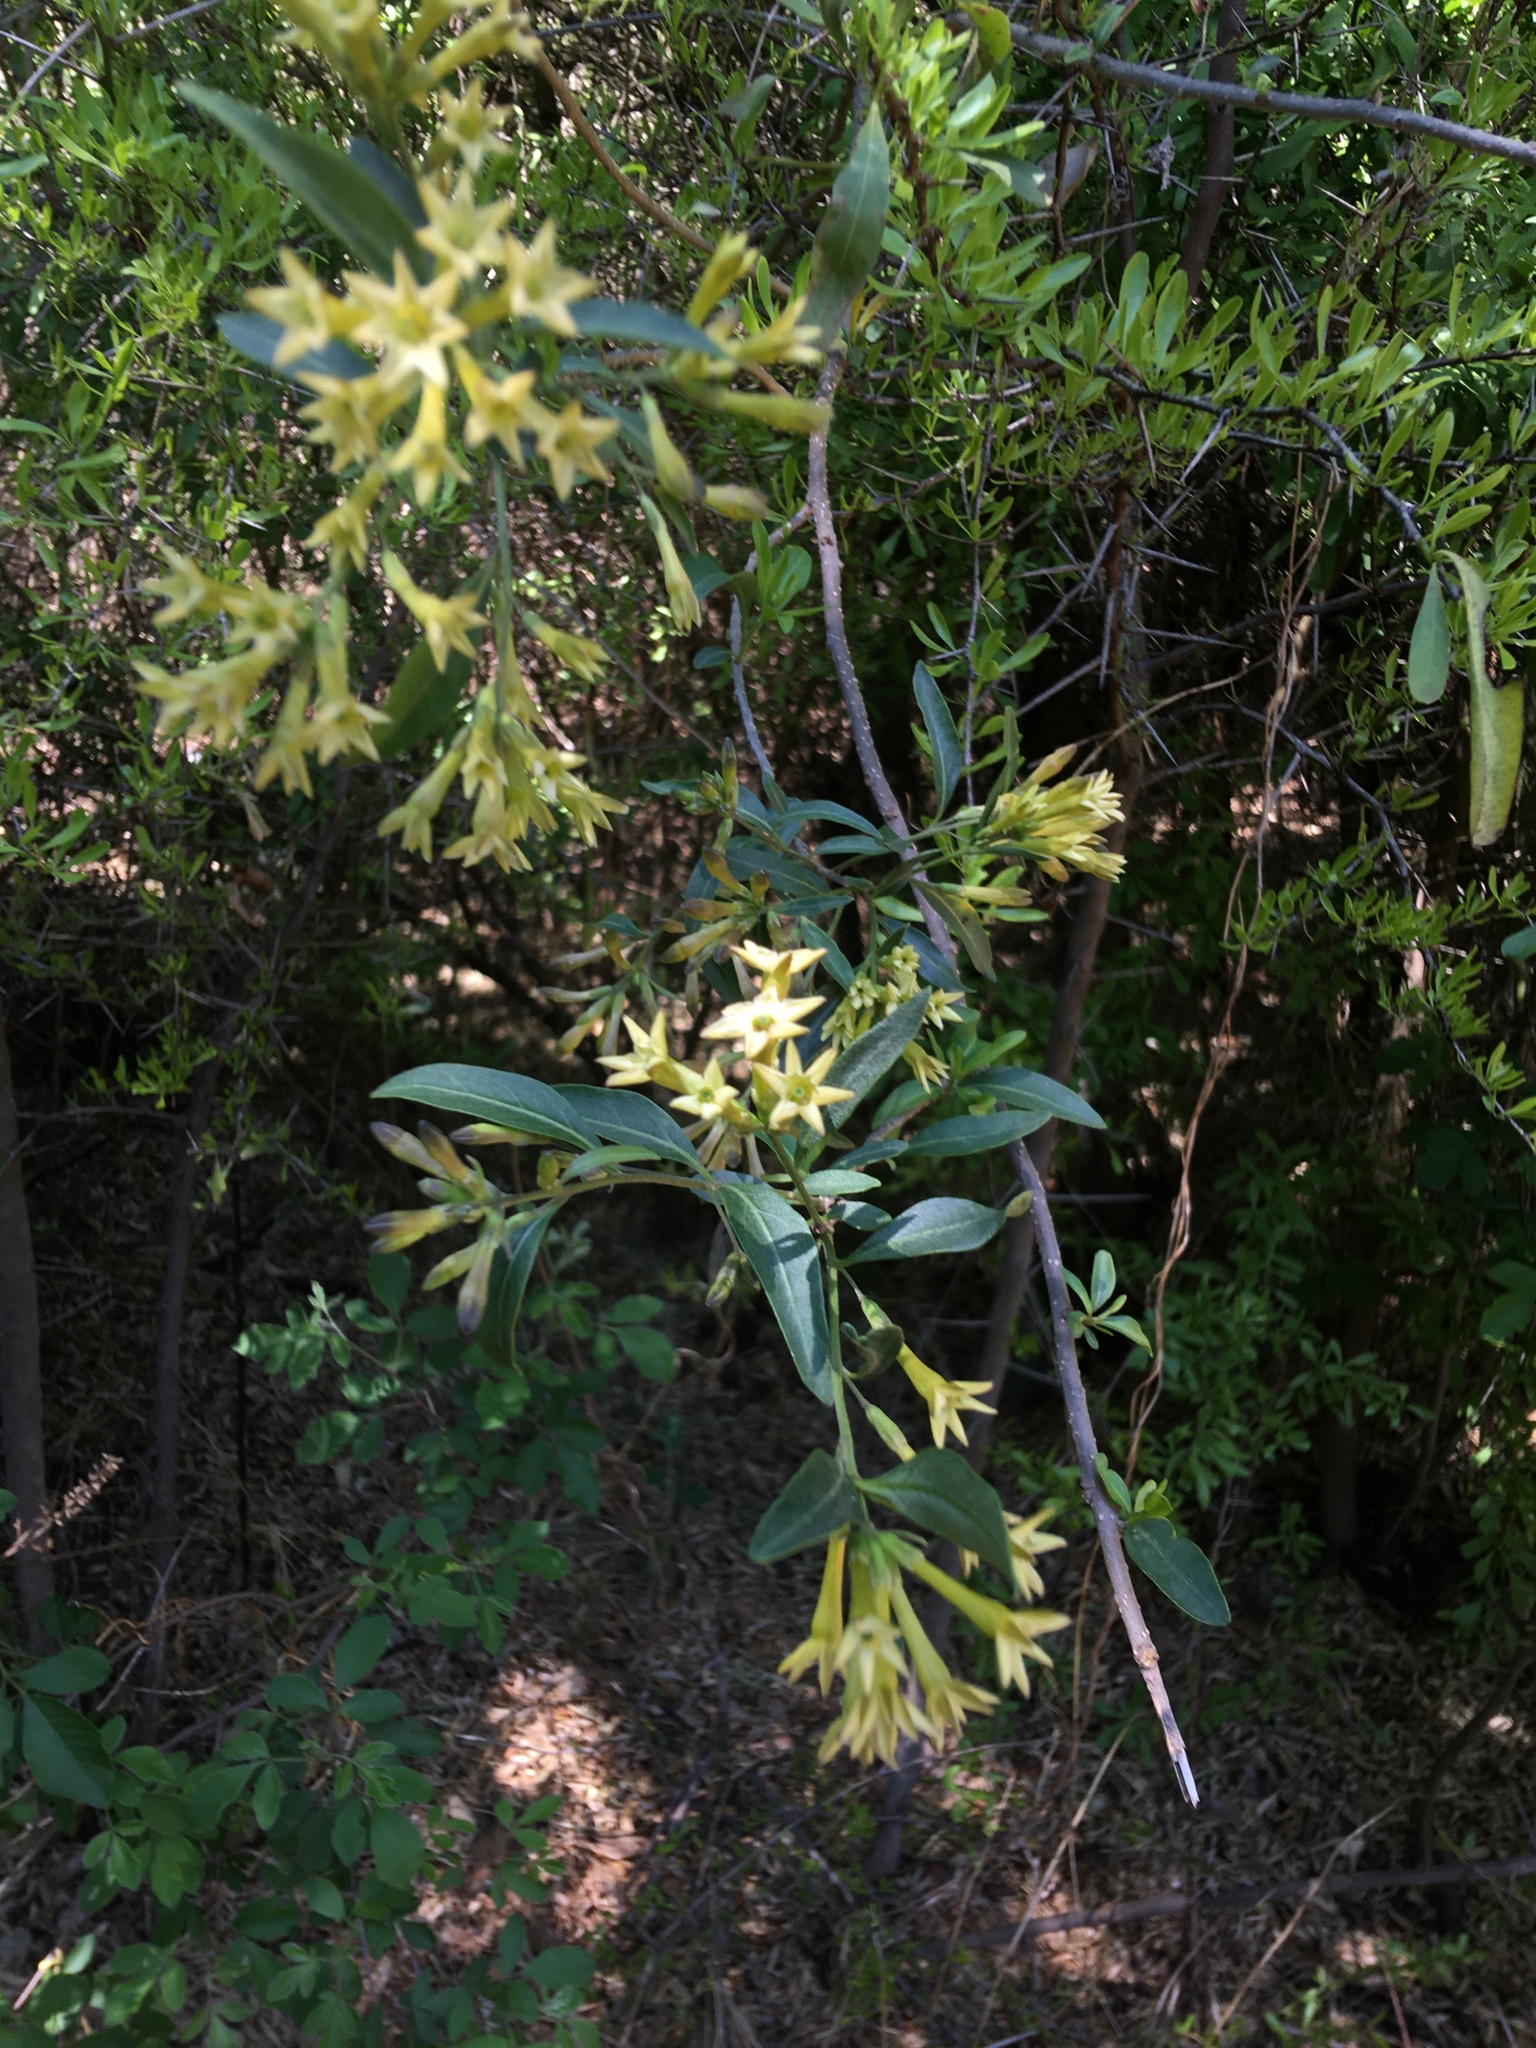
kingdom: Plantae
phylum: Tracheophyta
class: Magnoliopsida
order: Solanales
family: Solanaceae
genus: Cestrum
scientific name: Cestrum parqui
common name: Chilean cestrum
